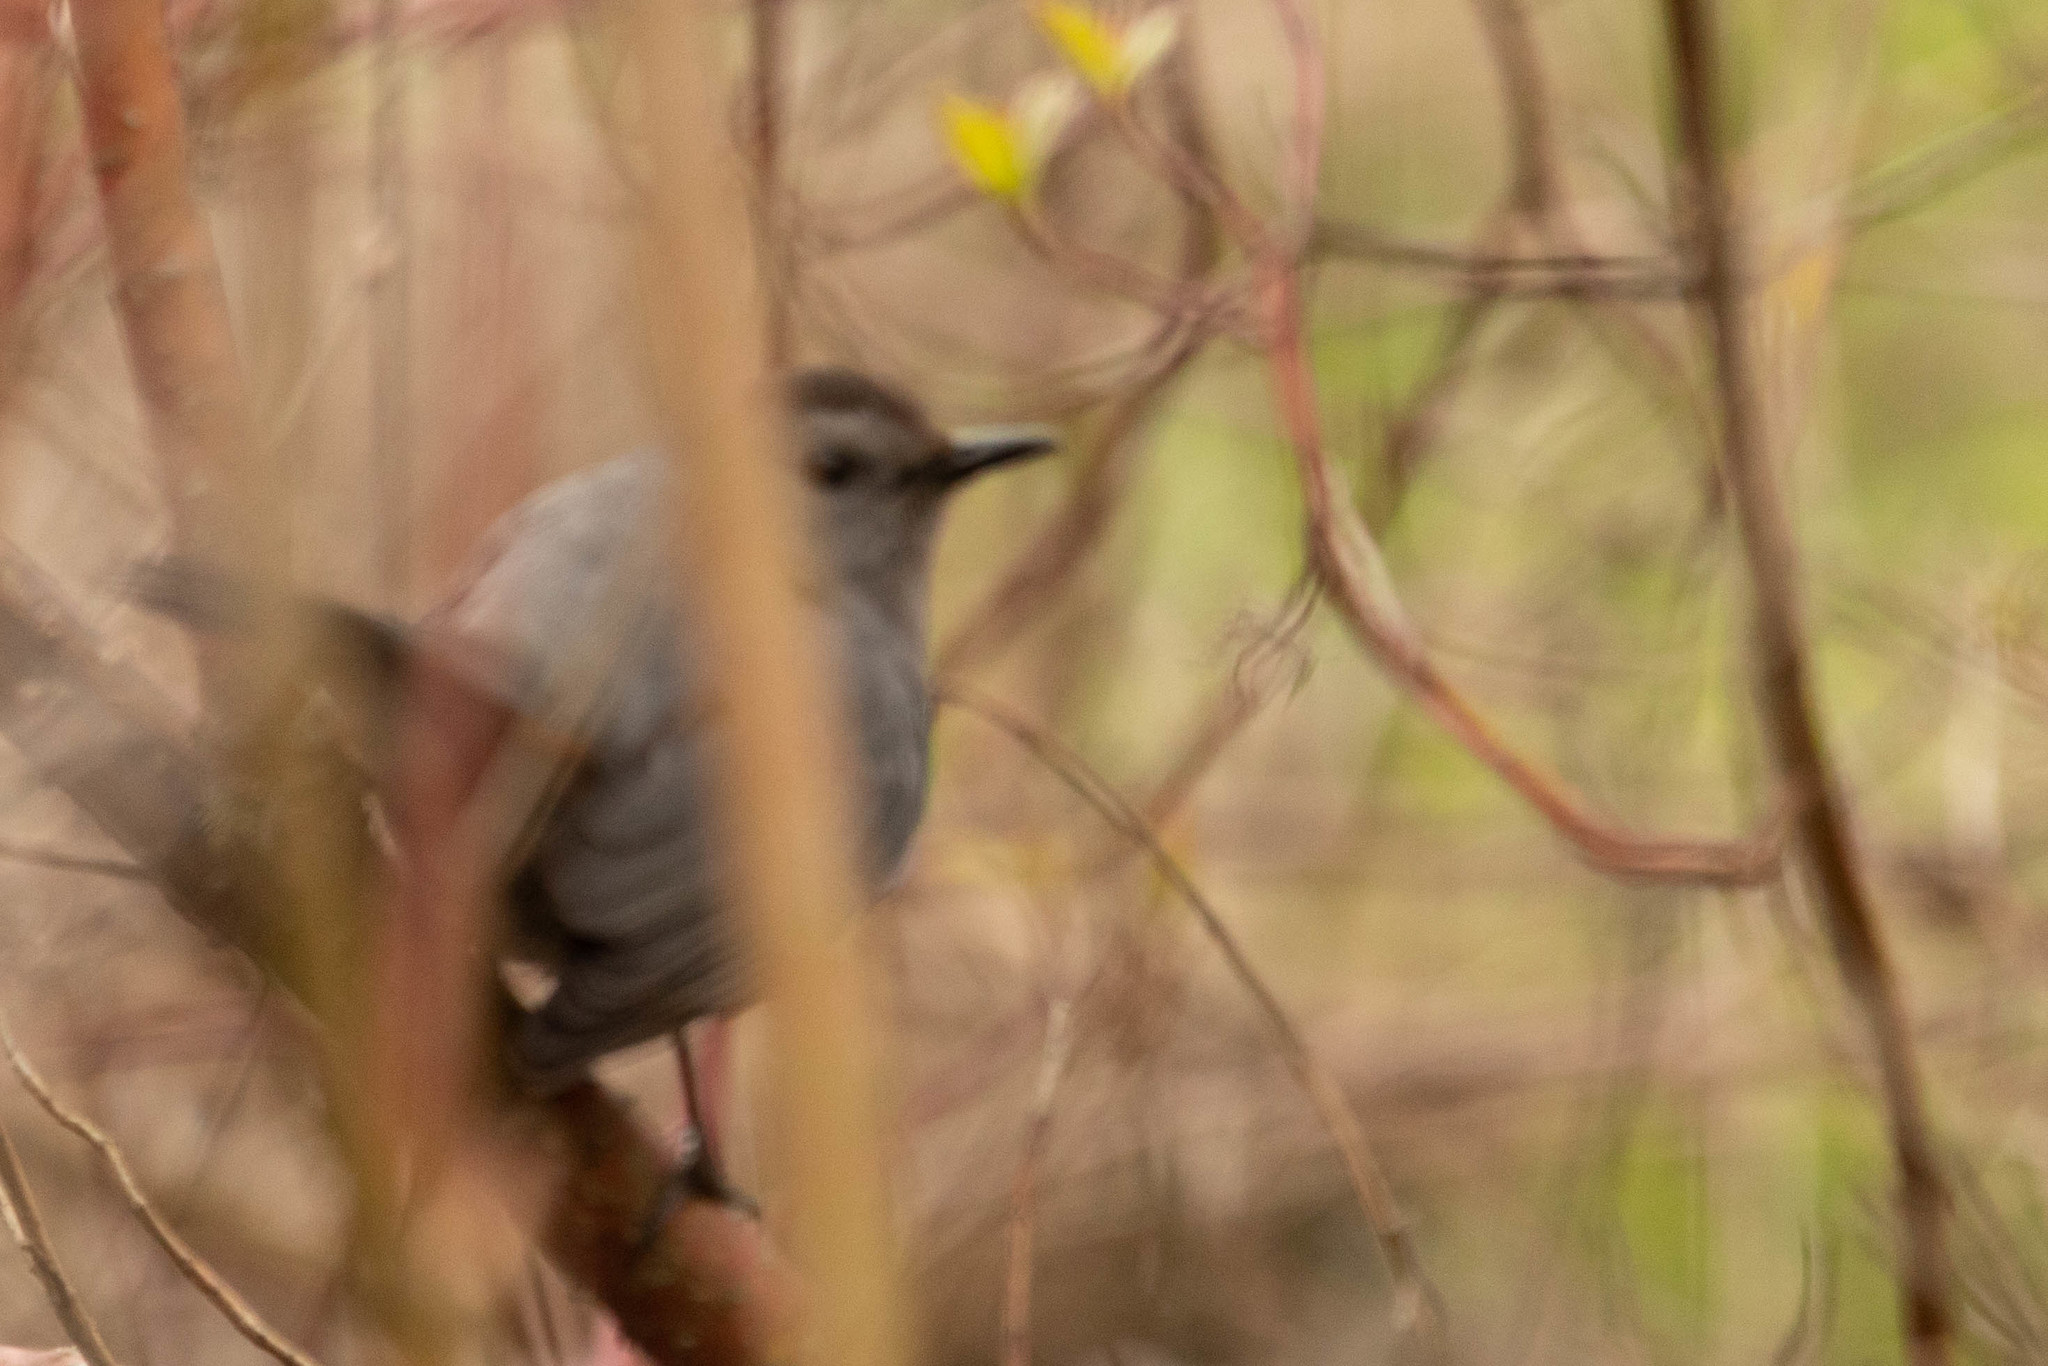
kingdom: Animalia
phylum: Chordata
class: Aves
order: Passeriformes
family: Mimidae
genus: Dumetella
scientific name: Dumetella carolinensis
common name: Gray catbird
